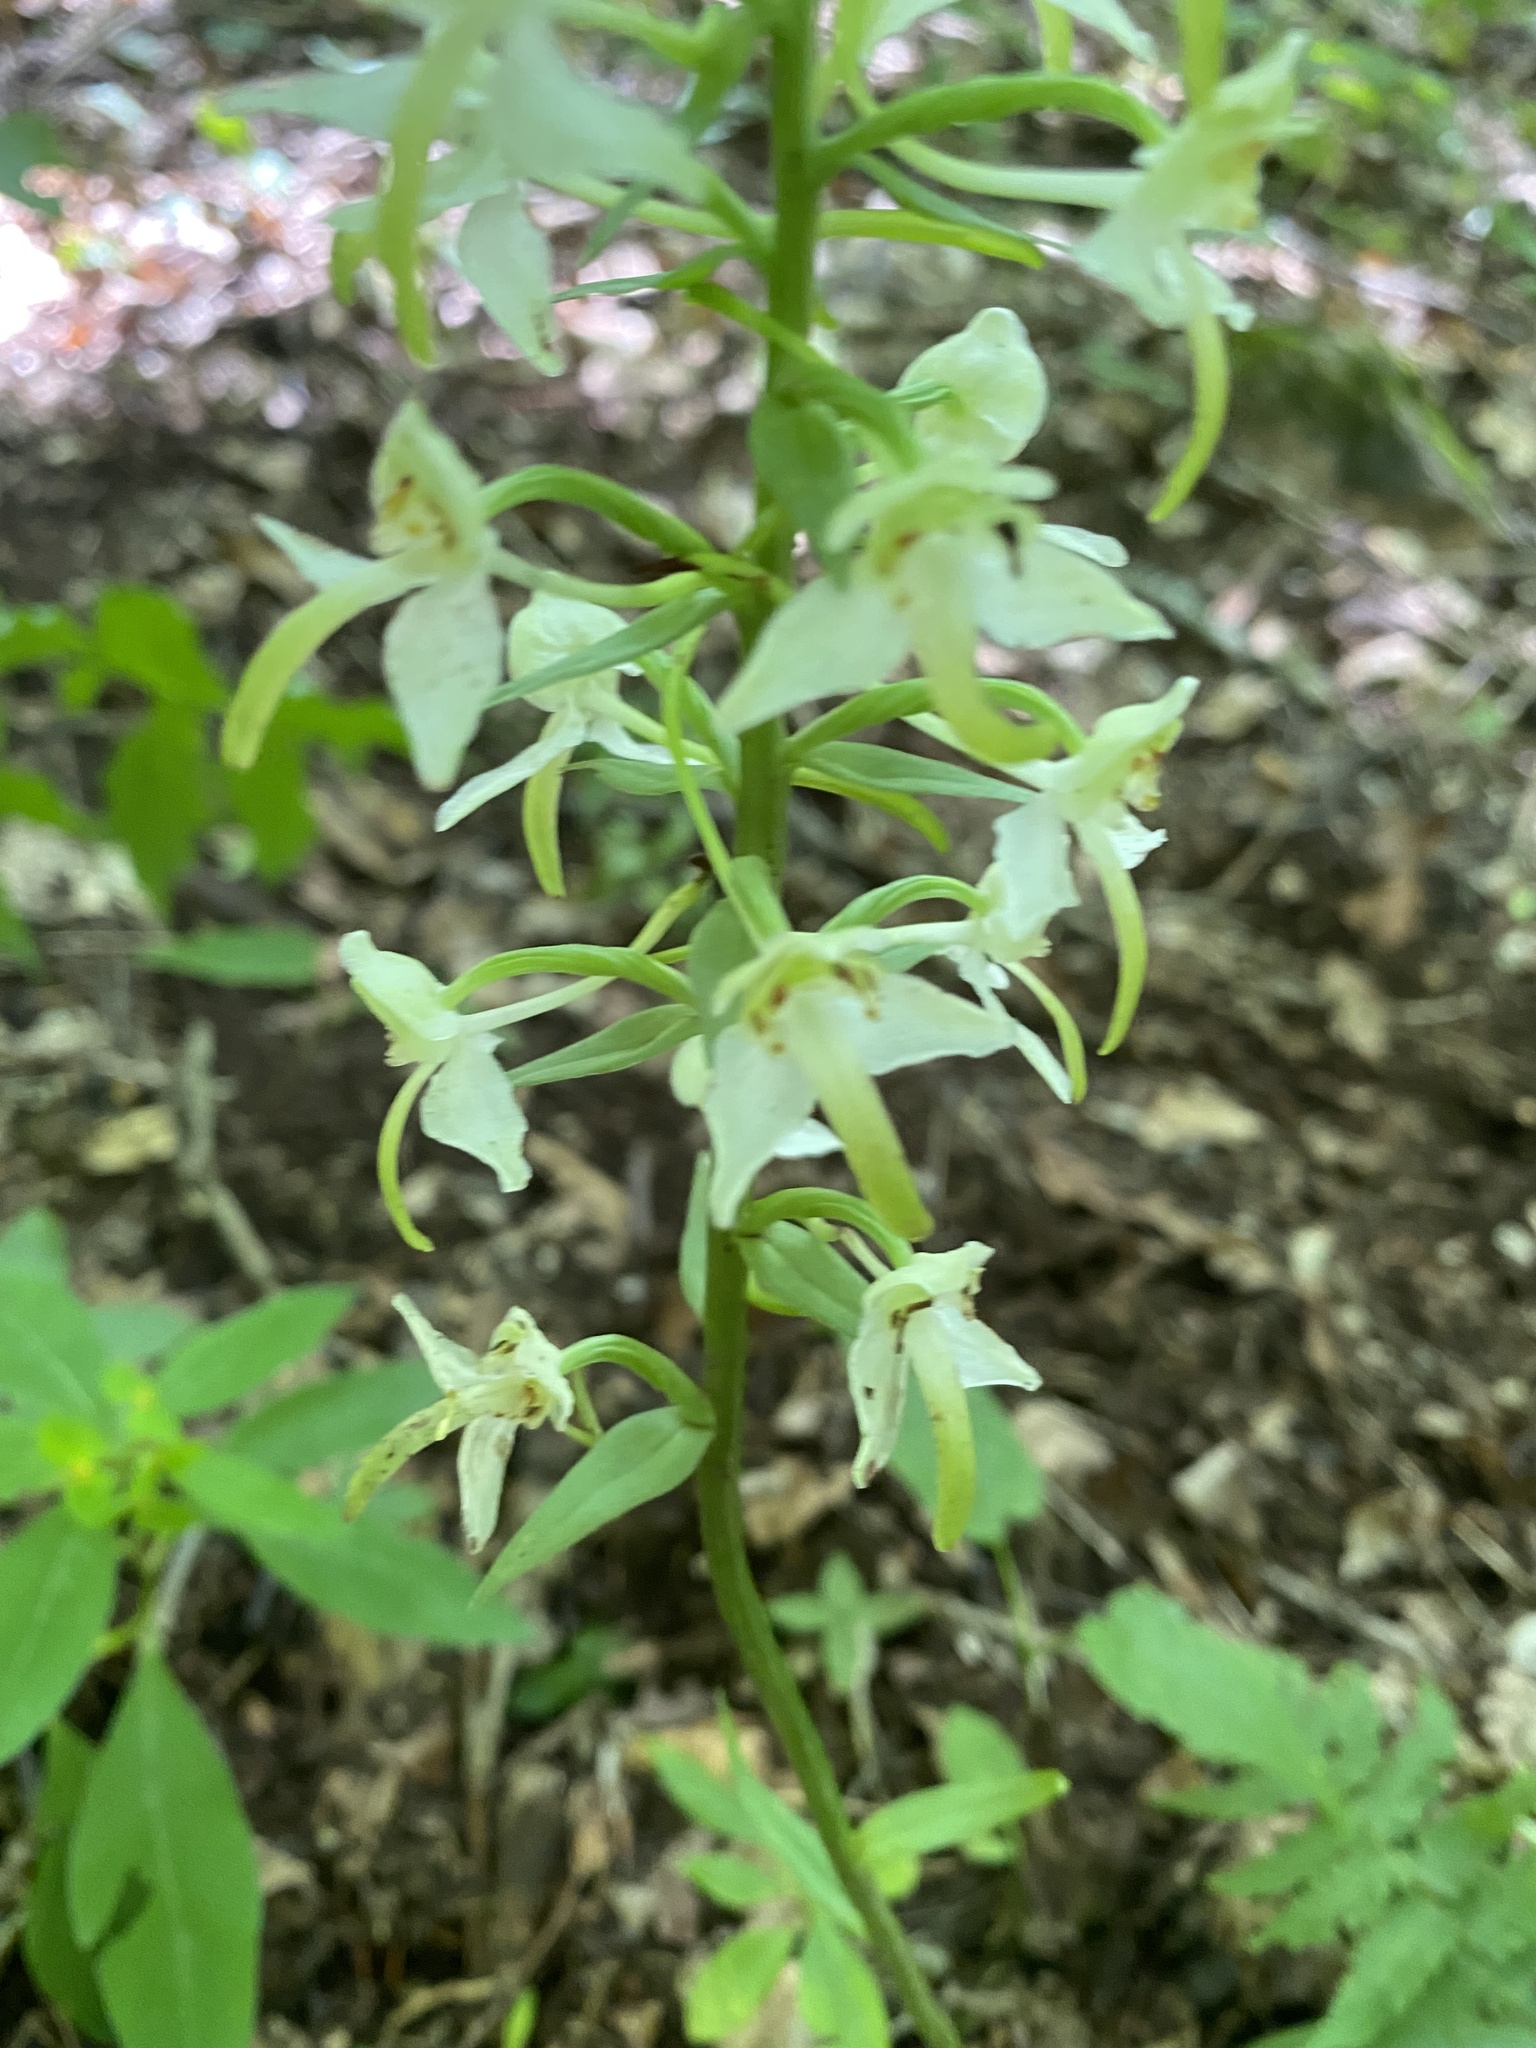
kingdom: Plantae
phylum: Tracheophyta
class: Liliopsida
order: Asparagales
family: Orchidaceae
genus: Platanthera
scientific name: Platanthera chlorantha
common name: Greater butterfly-orchid
